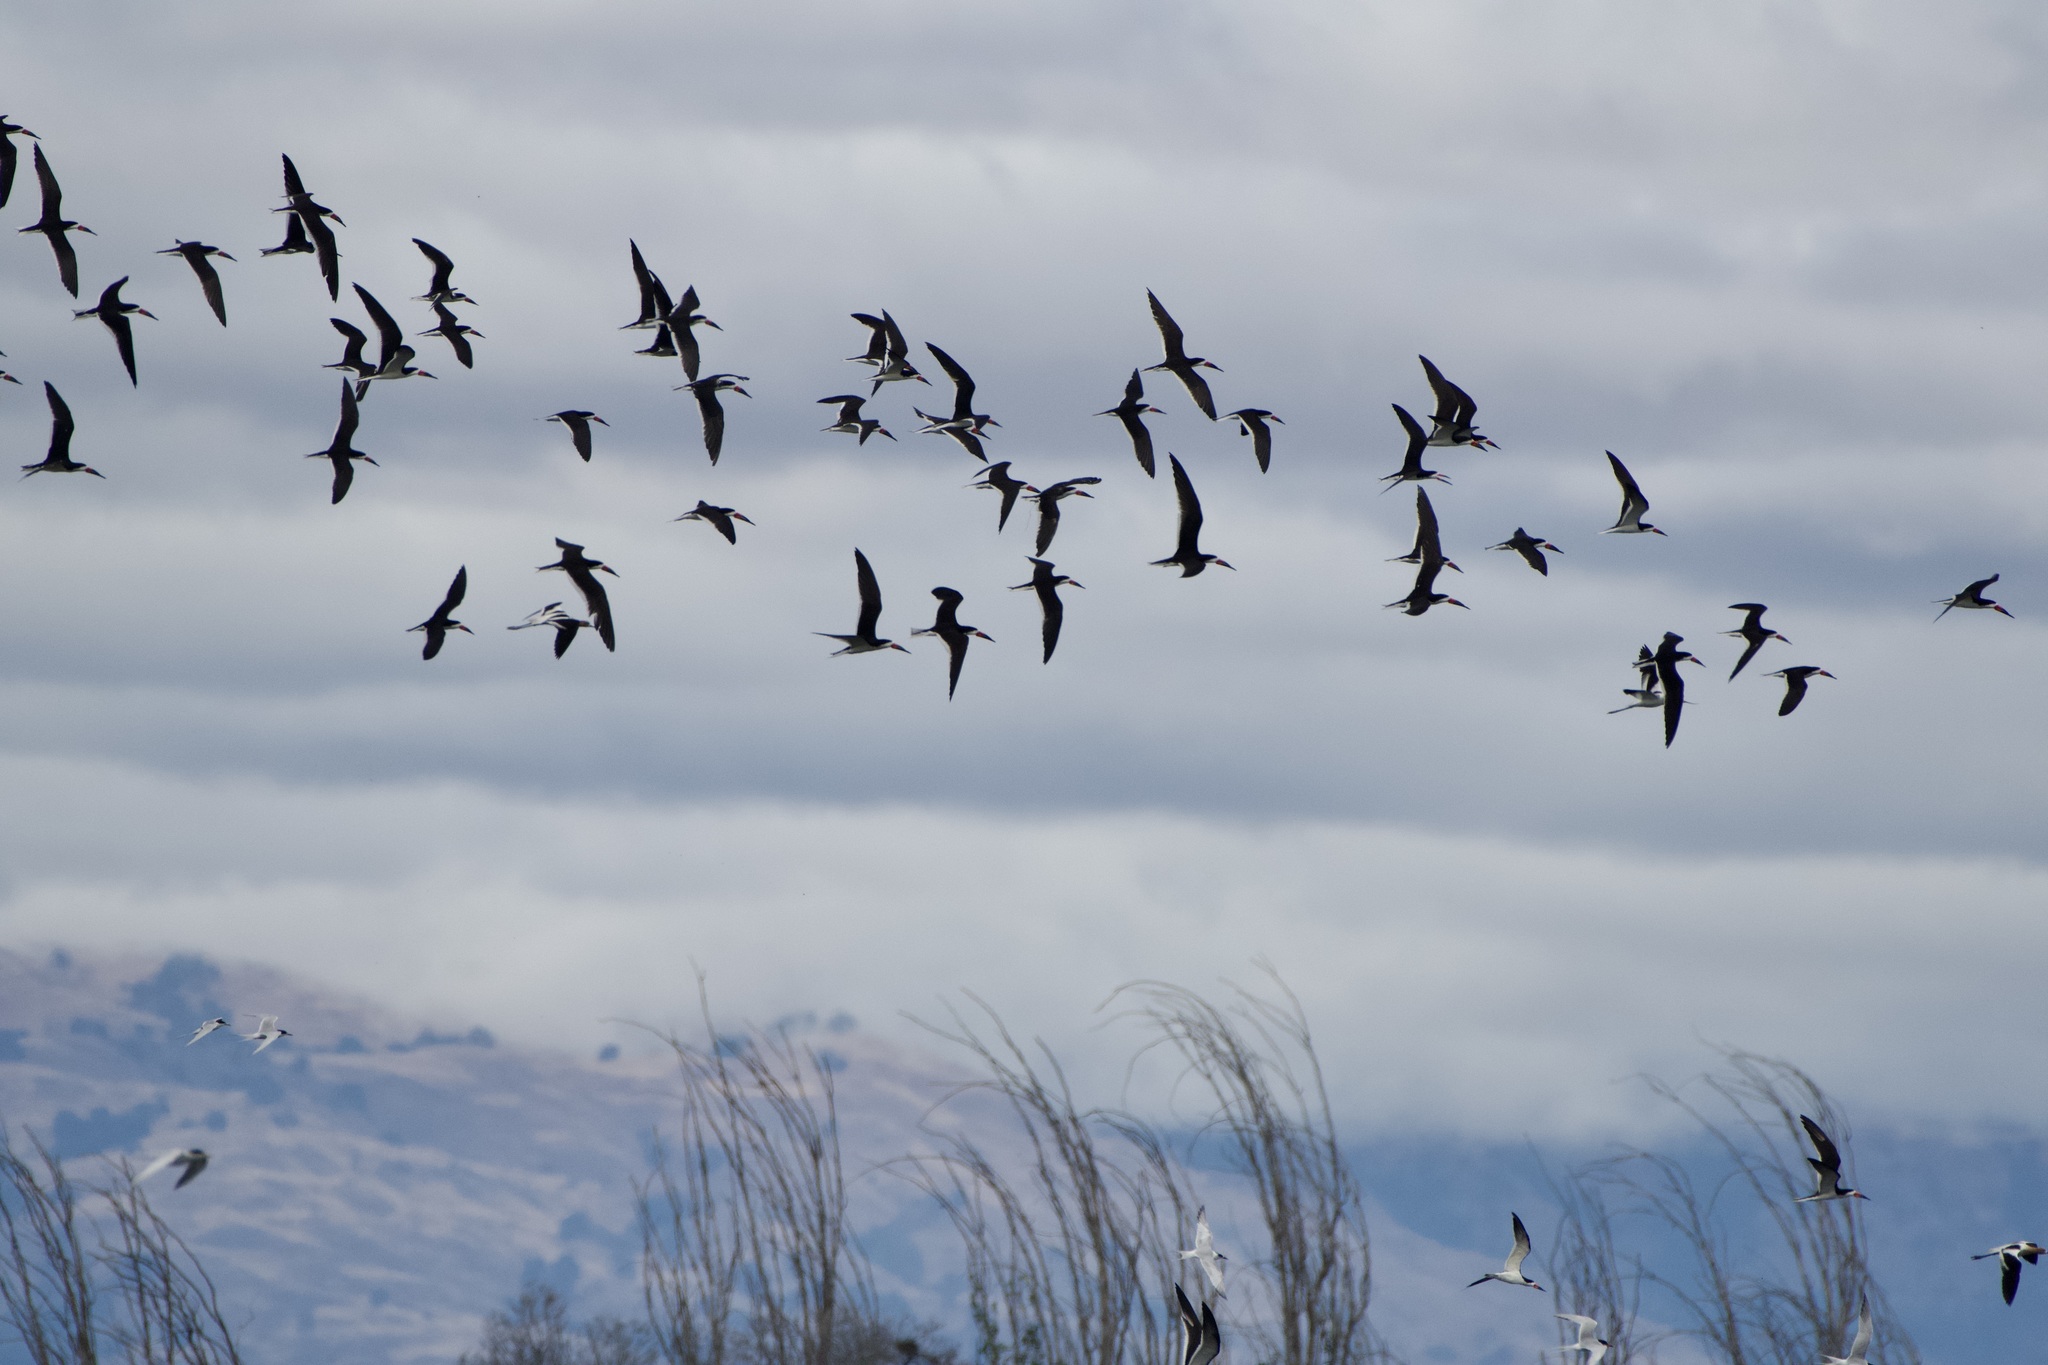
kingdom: Animalia
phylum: Chordata
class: Aves
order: Charadriiformes
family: Laridae
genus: Rynchops
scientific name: Rynchops niger
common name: Black skimmer
